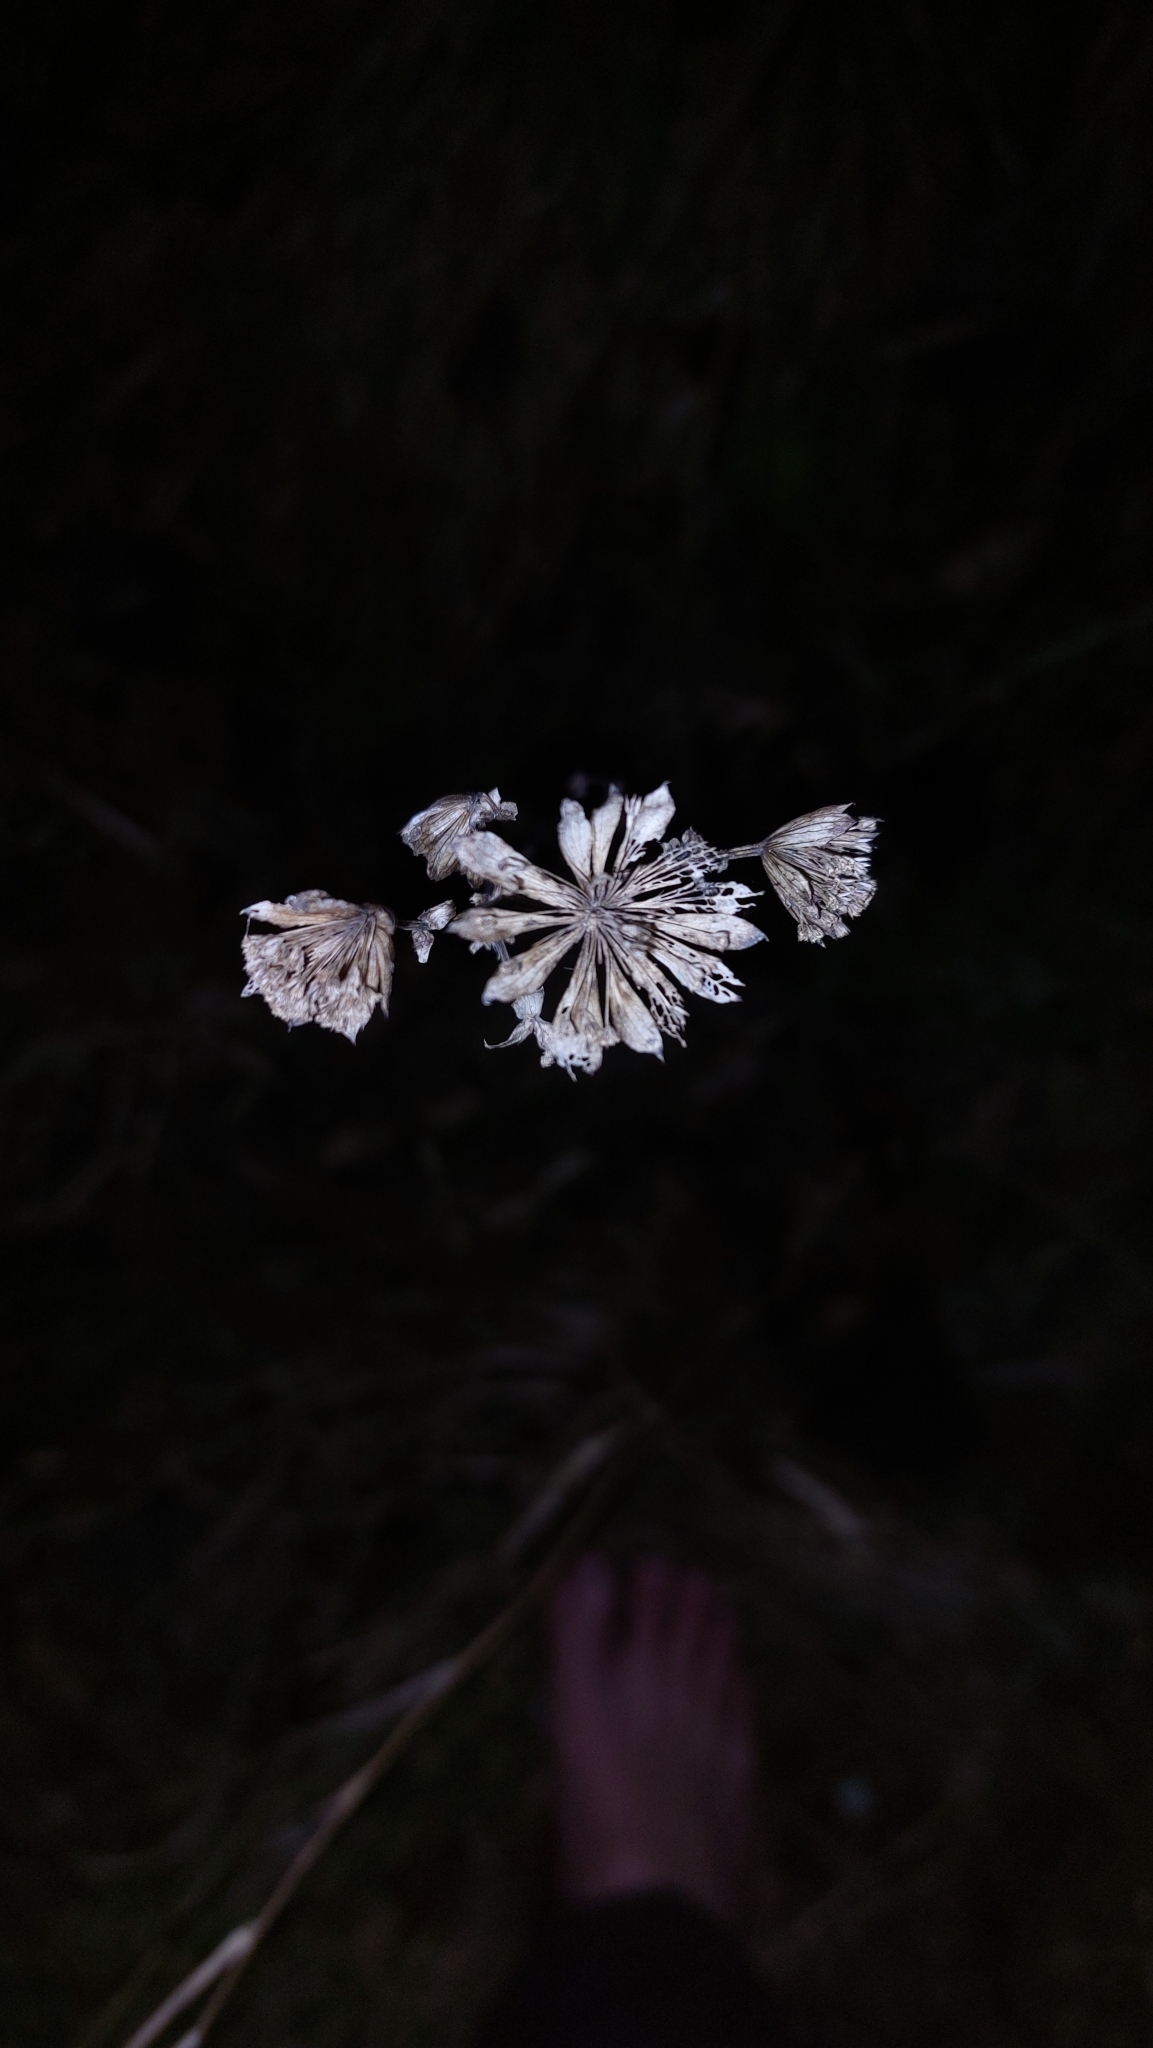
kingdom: Plantae
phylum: Tracheophyta
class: Magnoliopsida
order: Apiales
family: Apiaceae
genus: Astrantia
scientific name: Astrantia major
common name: Greater masterwort
